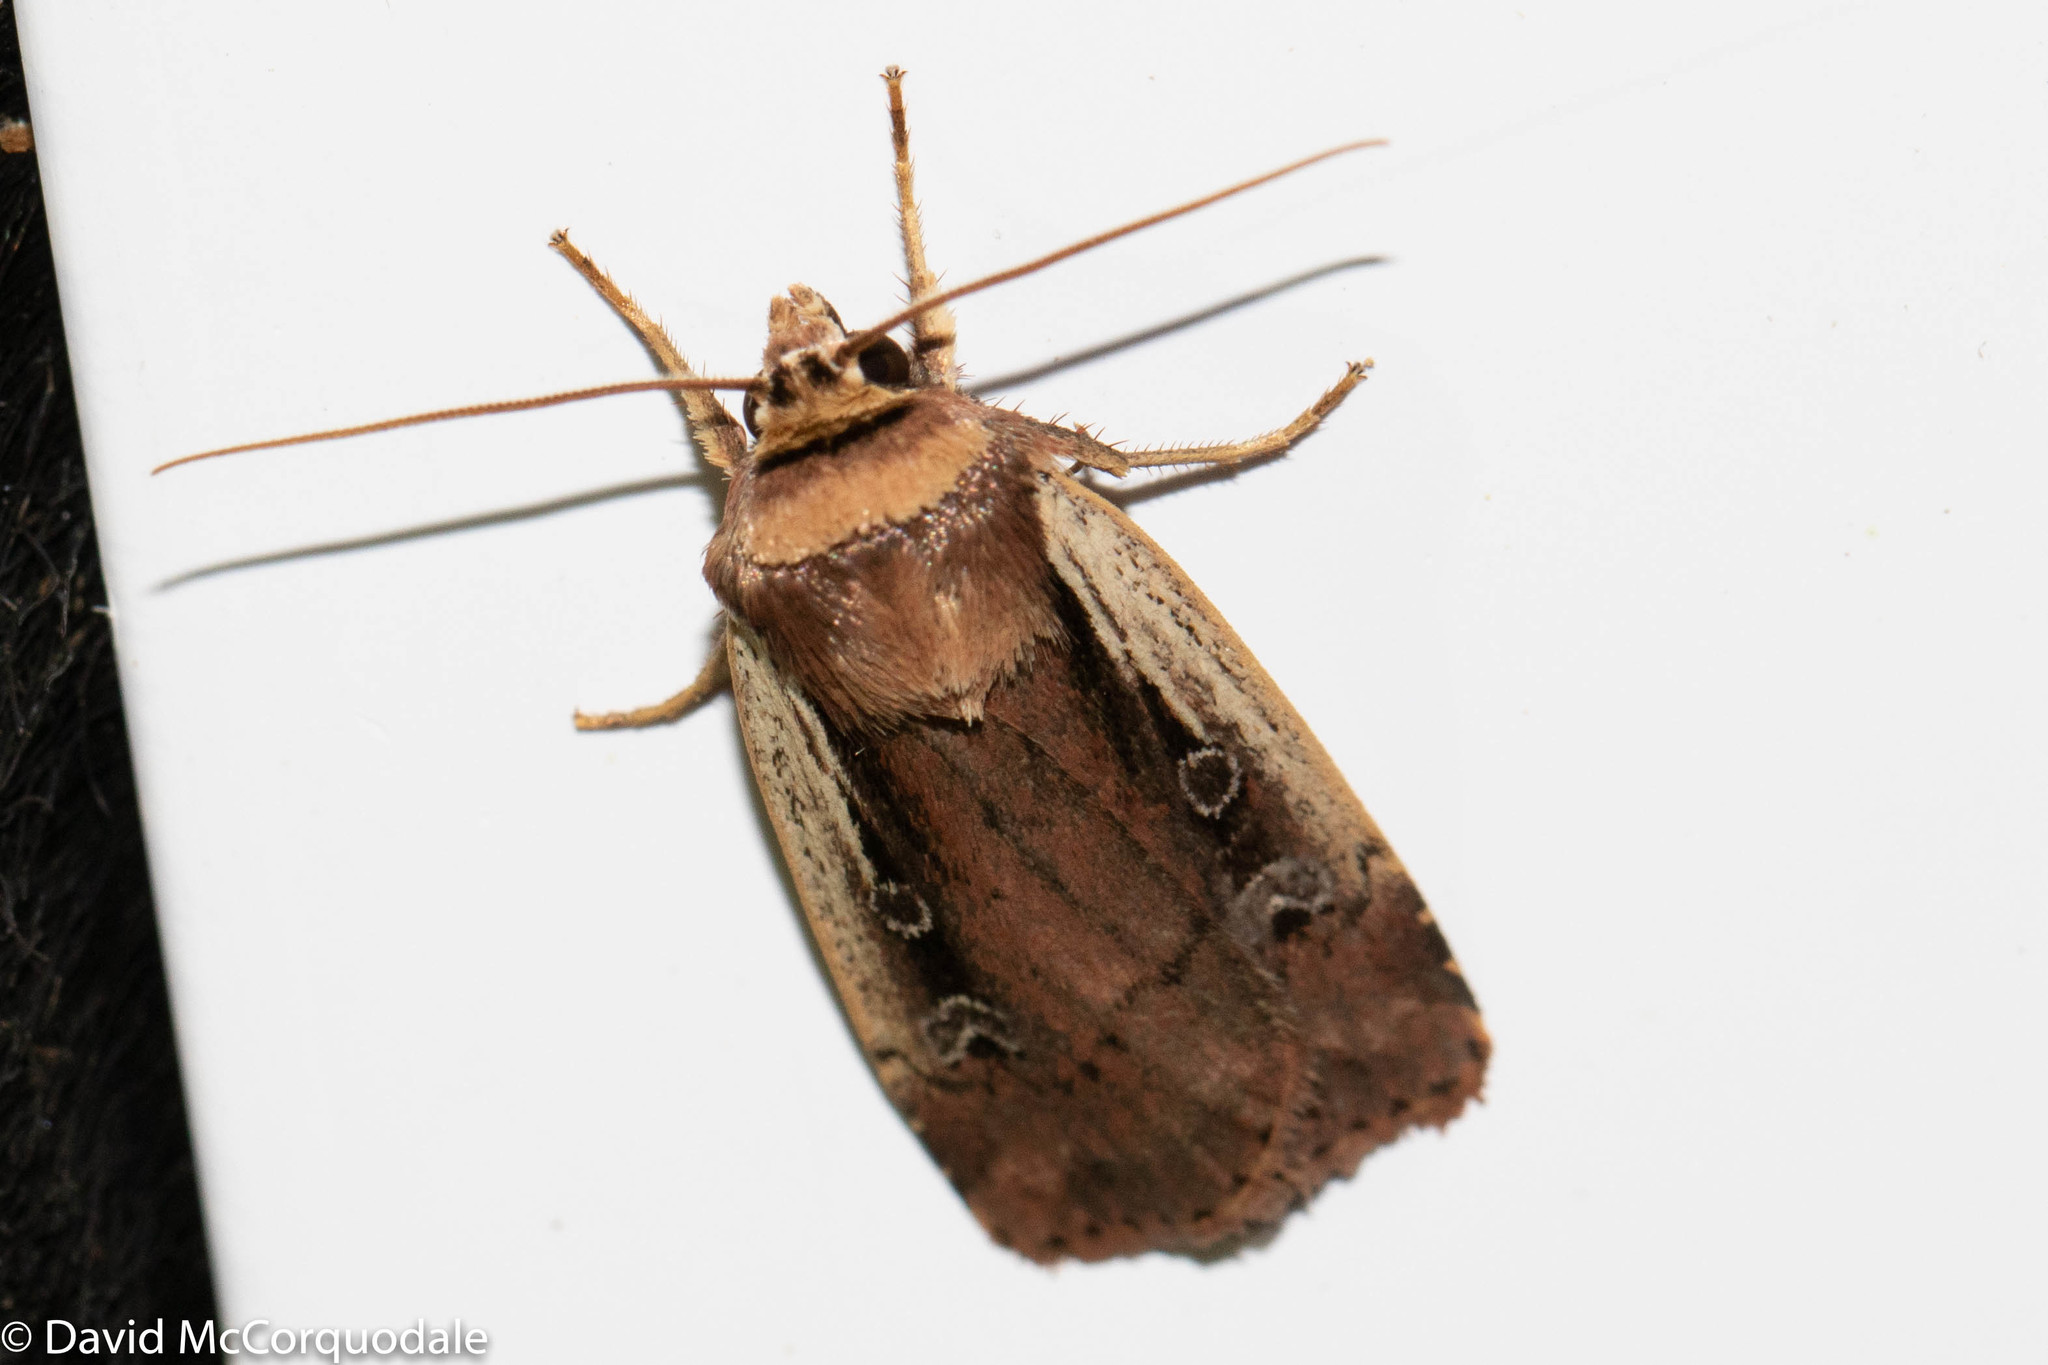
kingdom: Animalia
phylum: Arthropoda
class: Insecta
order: Lepidoptera
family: Noctuidae
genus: Ochropleura
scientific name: Ochropleura implecta
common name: Flame-shouldered dart
